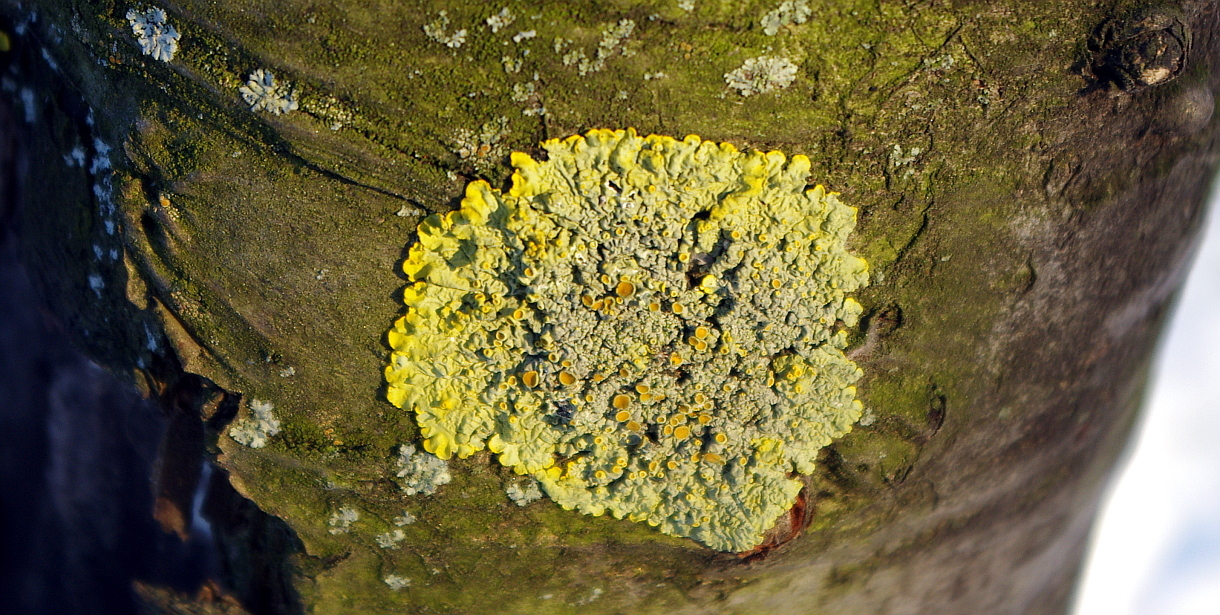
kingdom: Fungi
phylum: Ascomycota
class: Lecanoromycetes
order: Teloschistales
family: Teloschistaceae
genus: Xanthoria
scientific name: Xanthoria parietina
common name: Common orange lichen
